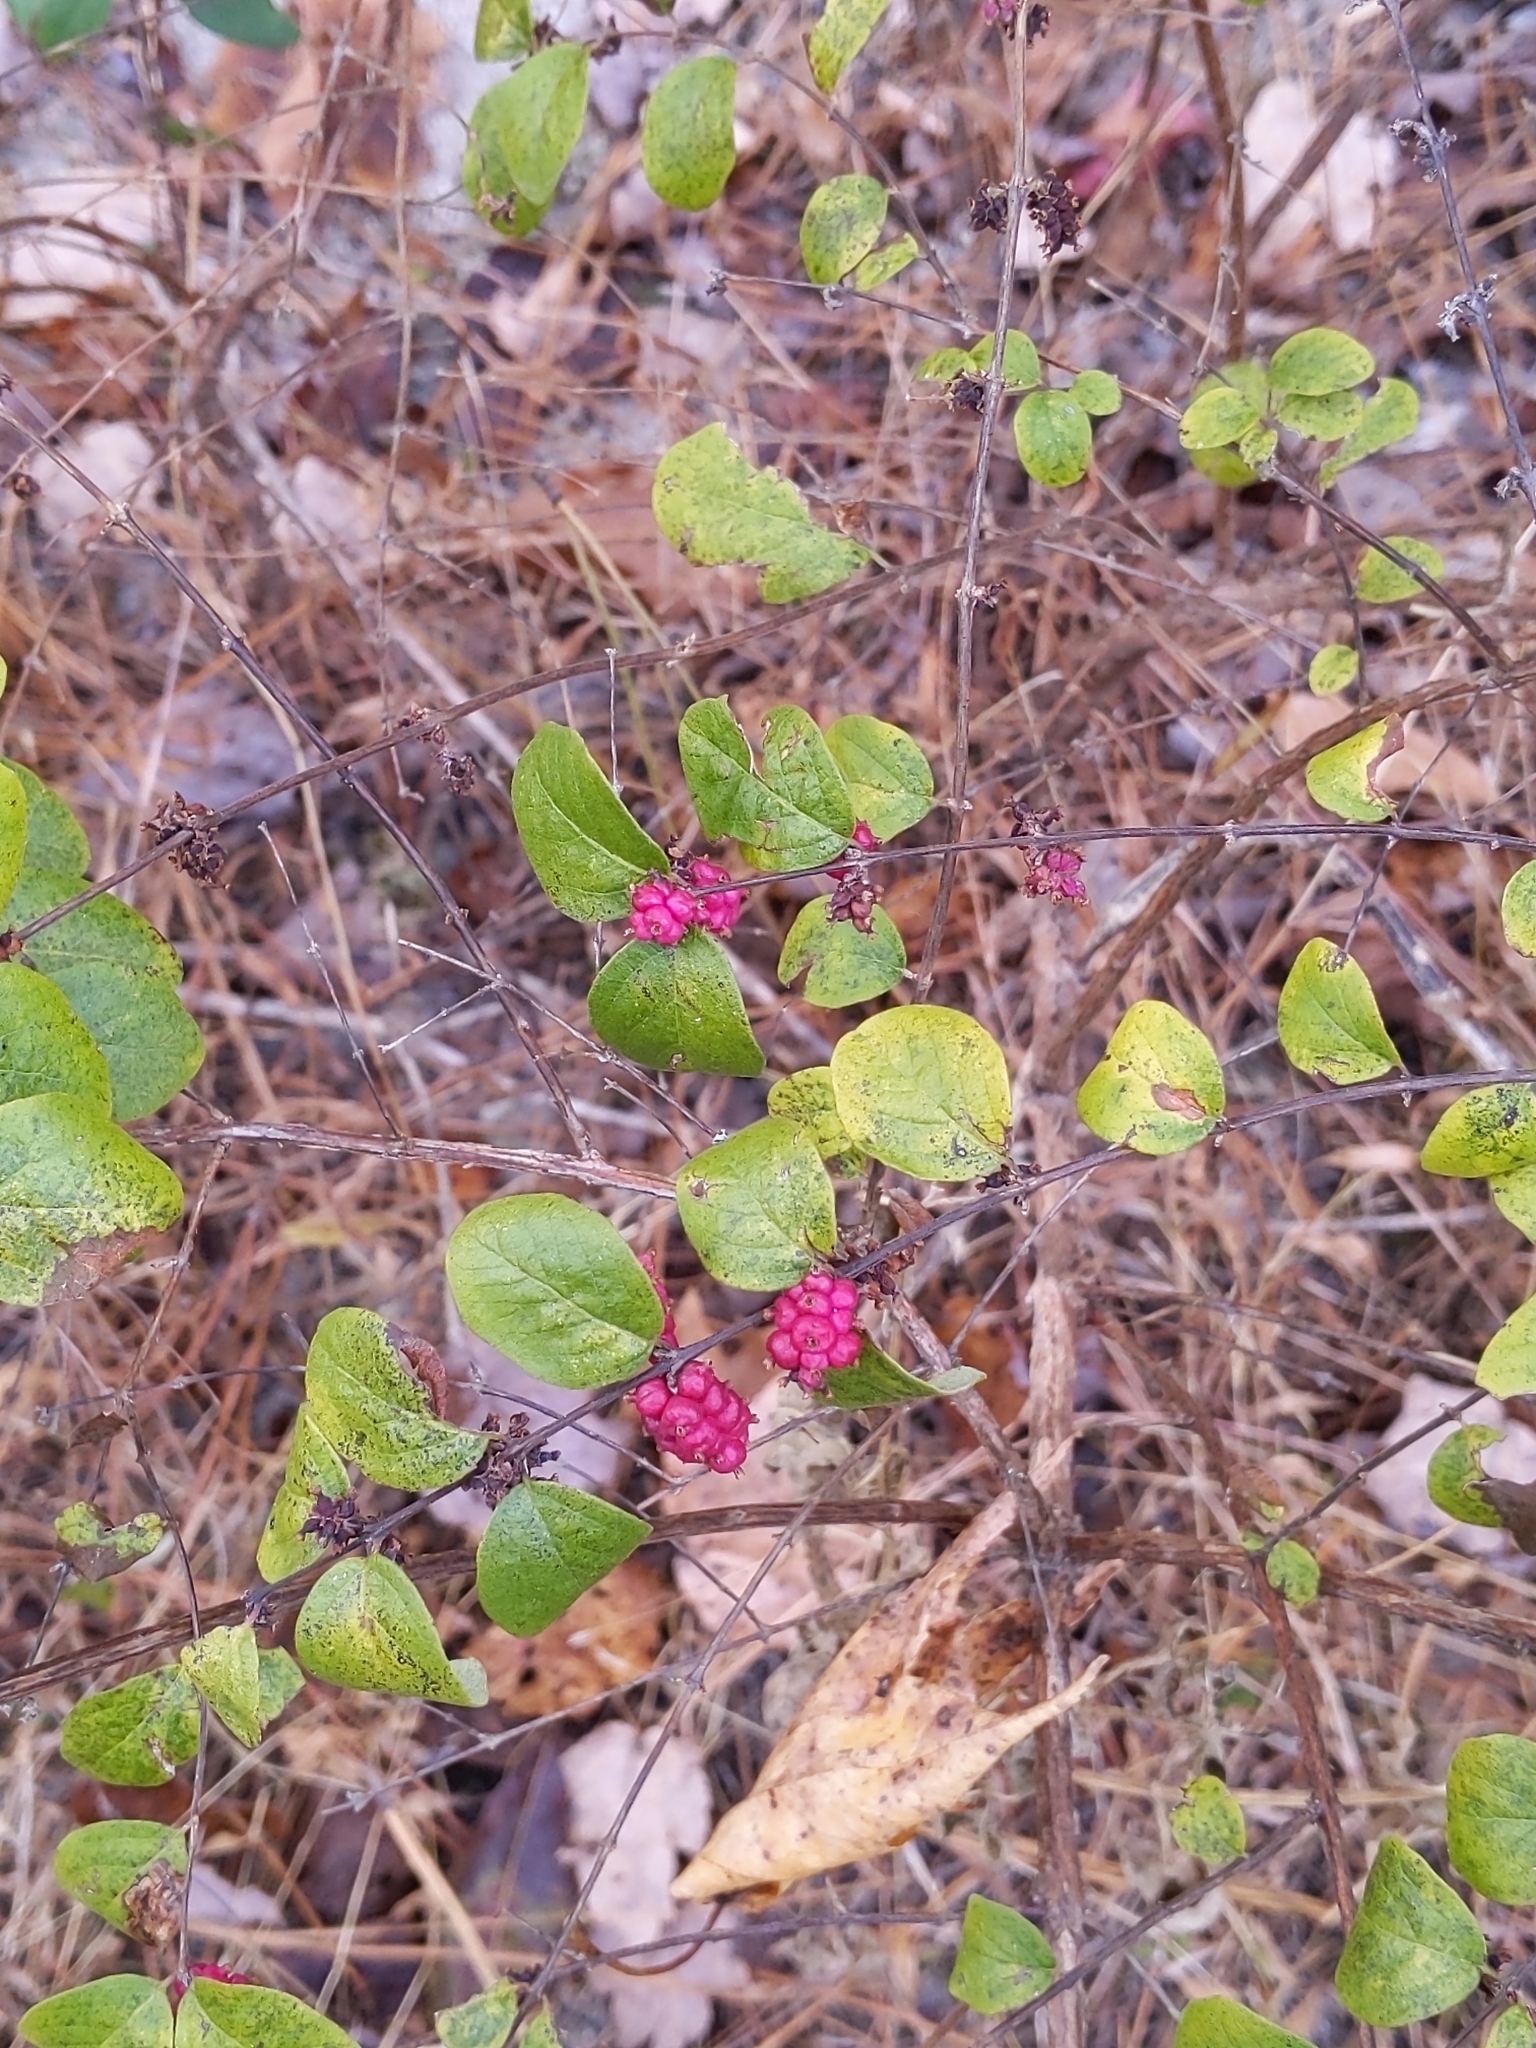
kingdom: Plantae
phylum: Tracheophyta
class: Magnoliopsida
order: Dipsacales
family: Caprifoliaceae
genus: Symphoricarpos
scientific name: Symphoricarpos orbiculatus
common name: Coralberry
